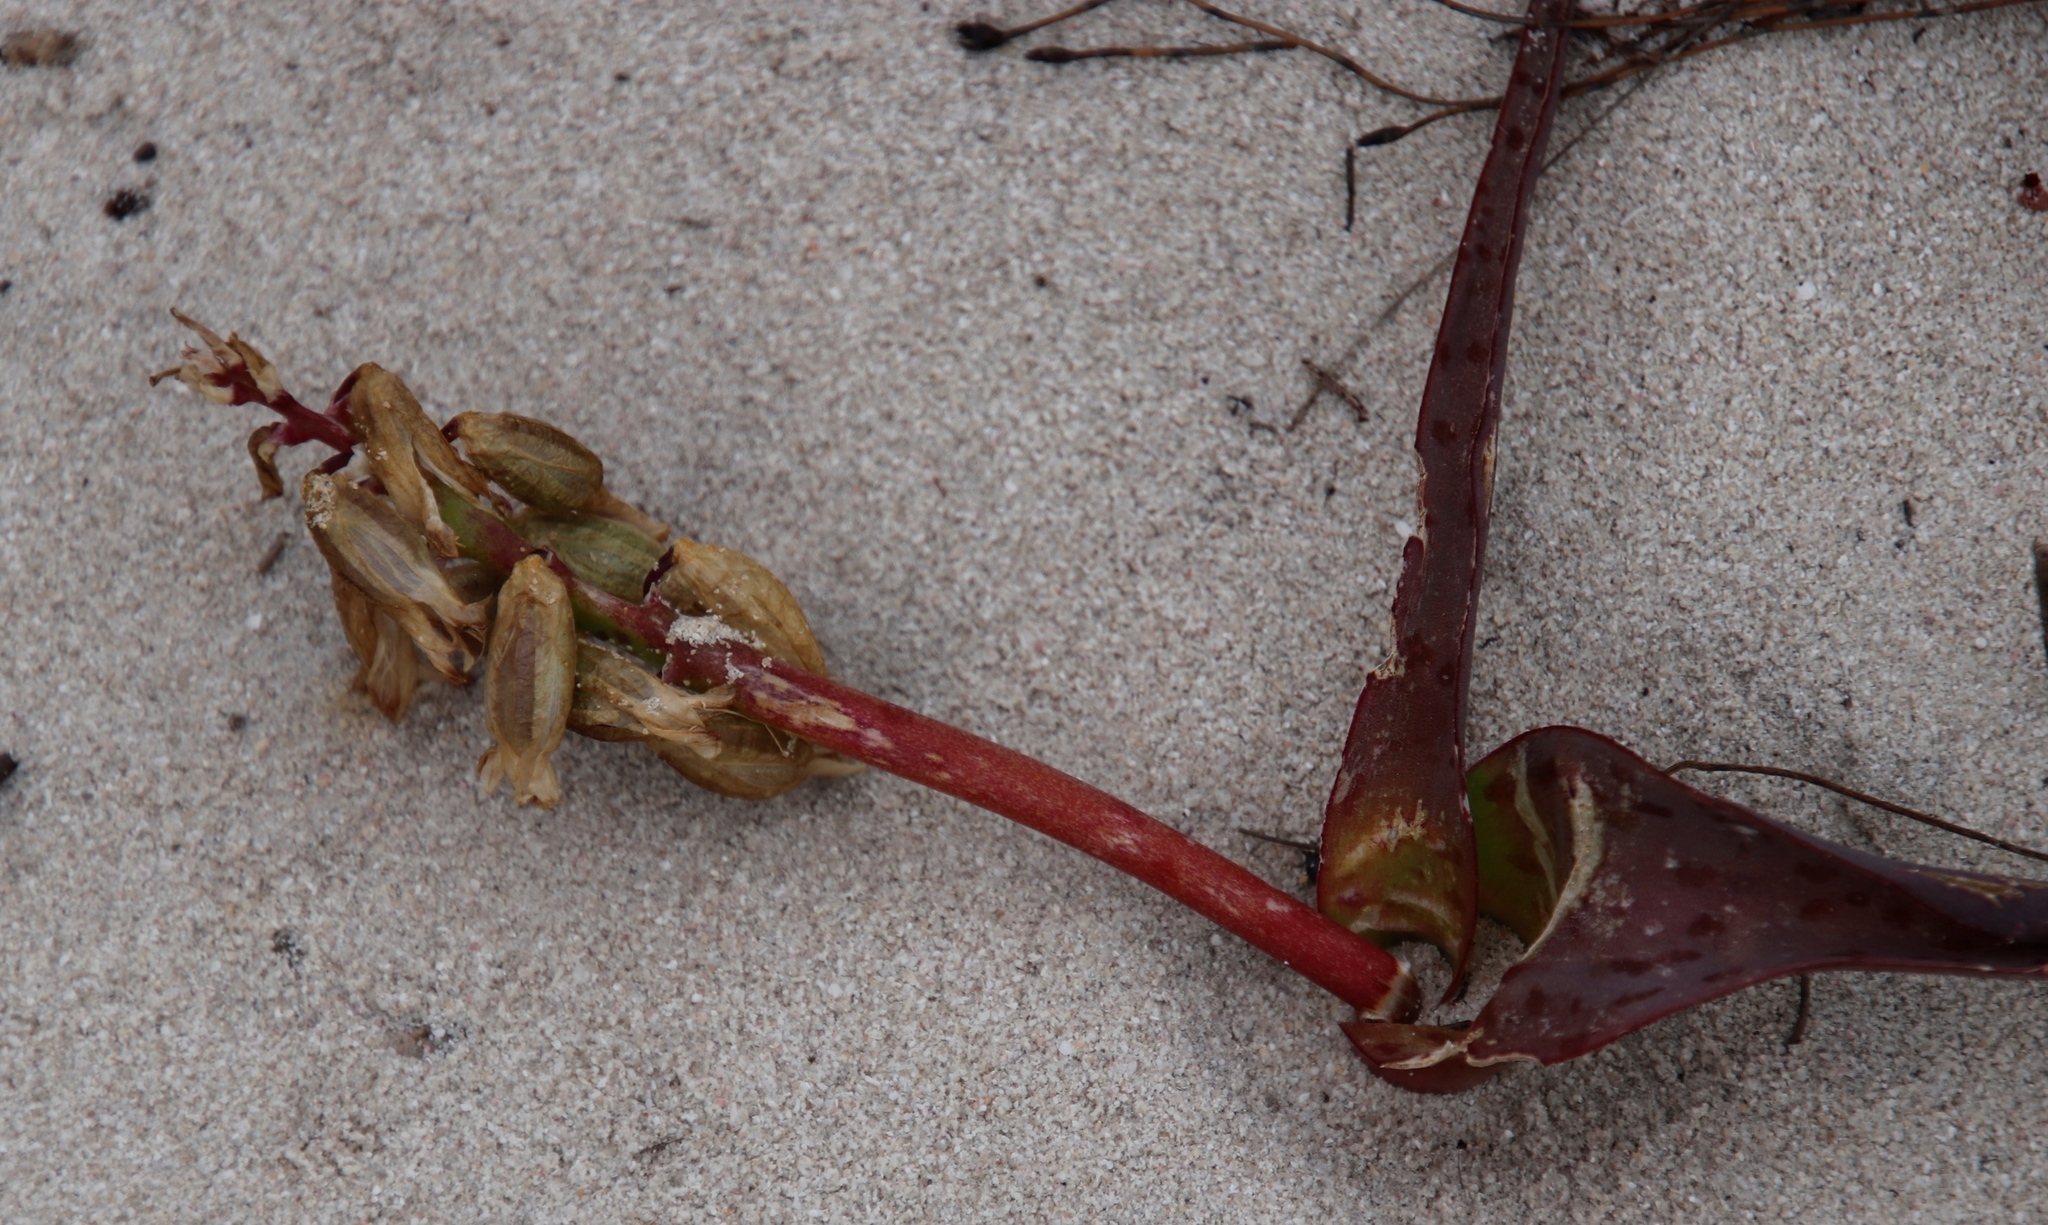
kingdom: Plantae
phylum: Tracheophyta
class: Liliopsida
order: Asparagales
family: Asparagaceae
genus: Lachenalia
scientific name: Lachenalia bulbifera
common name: Red lachenalia
